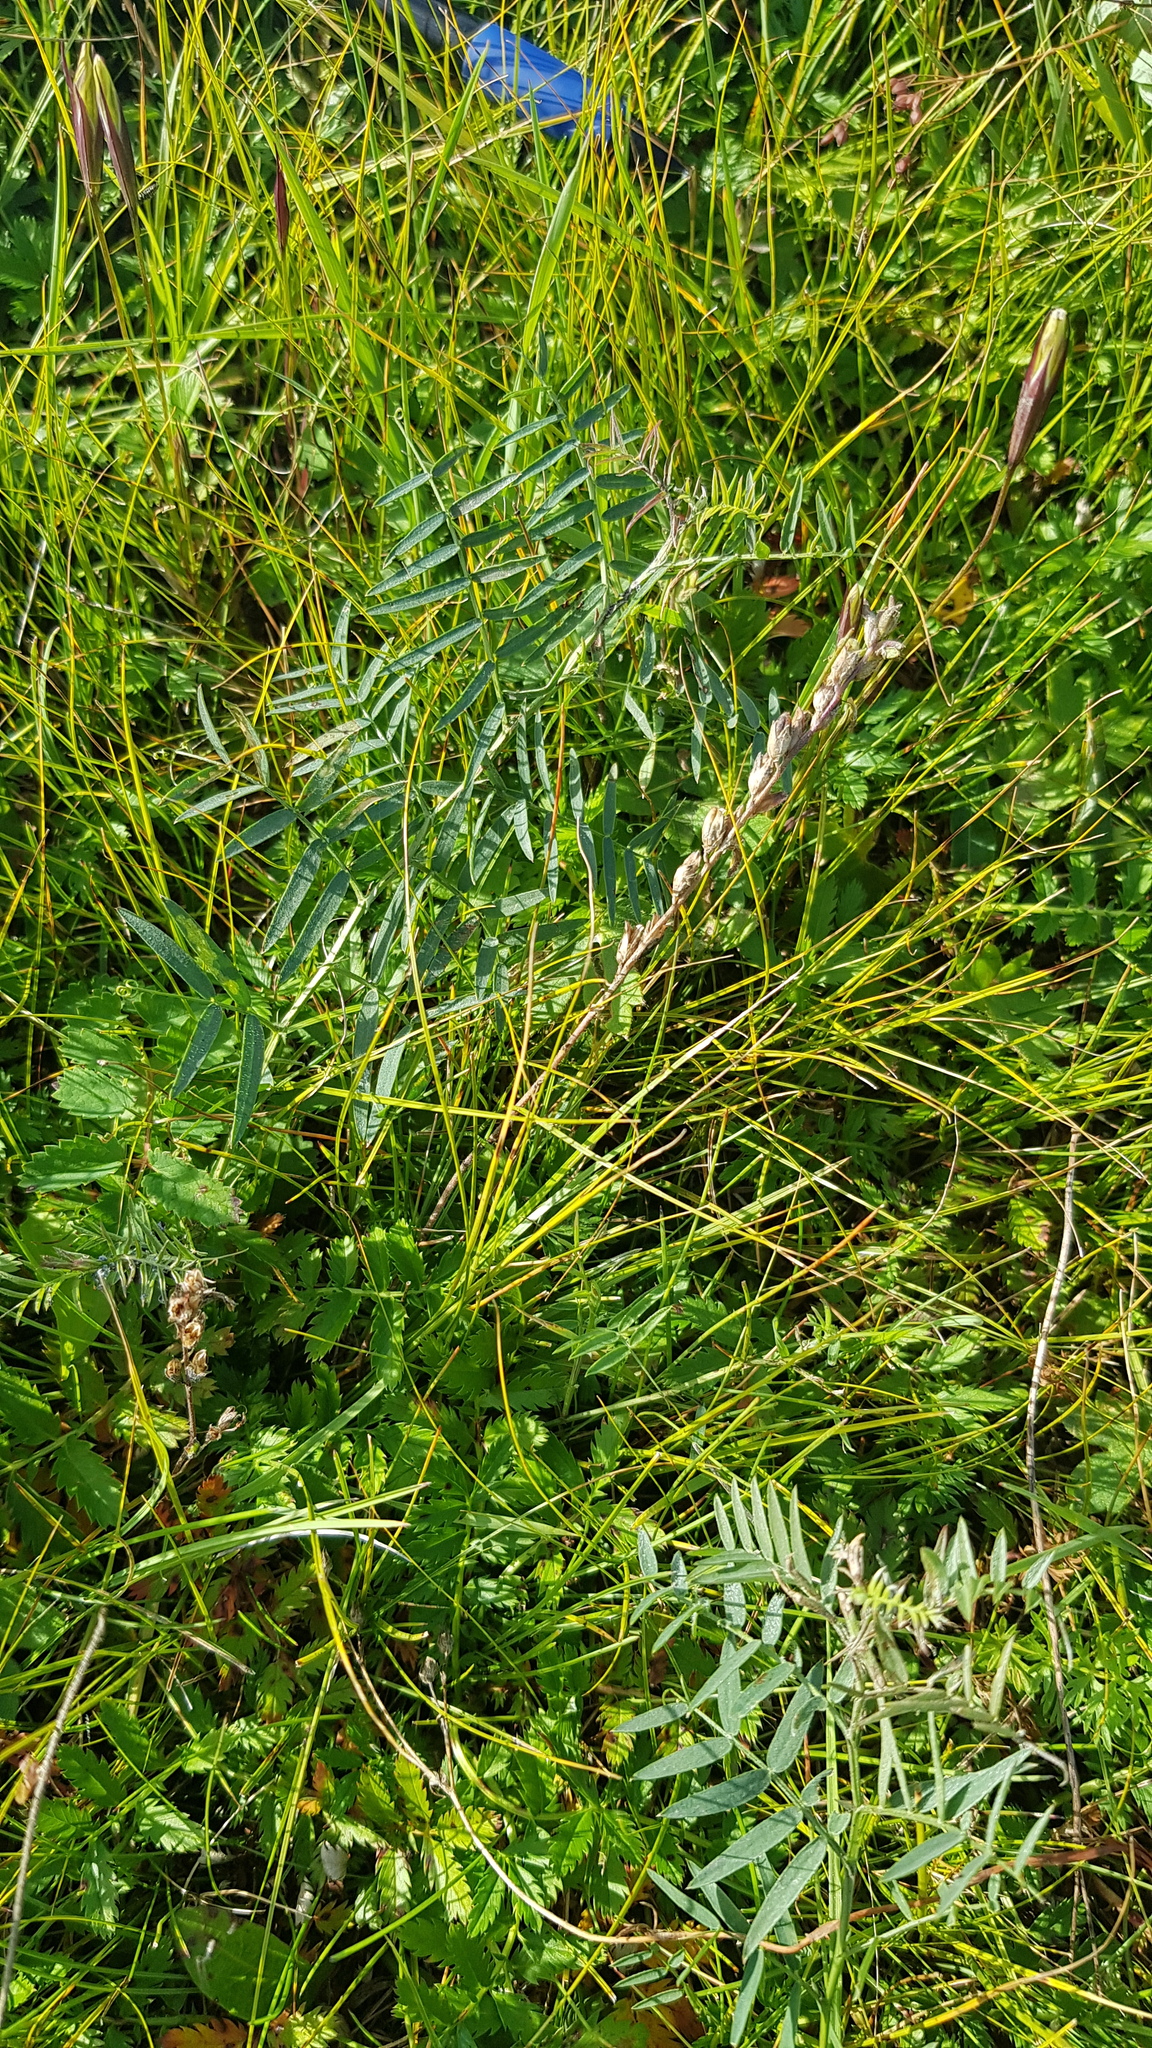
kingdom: Plantae
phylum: Tracheophyta
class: Magnoliopsida
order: Fabales
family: Fabaceae
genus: Vicia
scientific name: Vicia cracca
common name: Bird vetch
